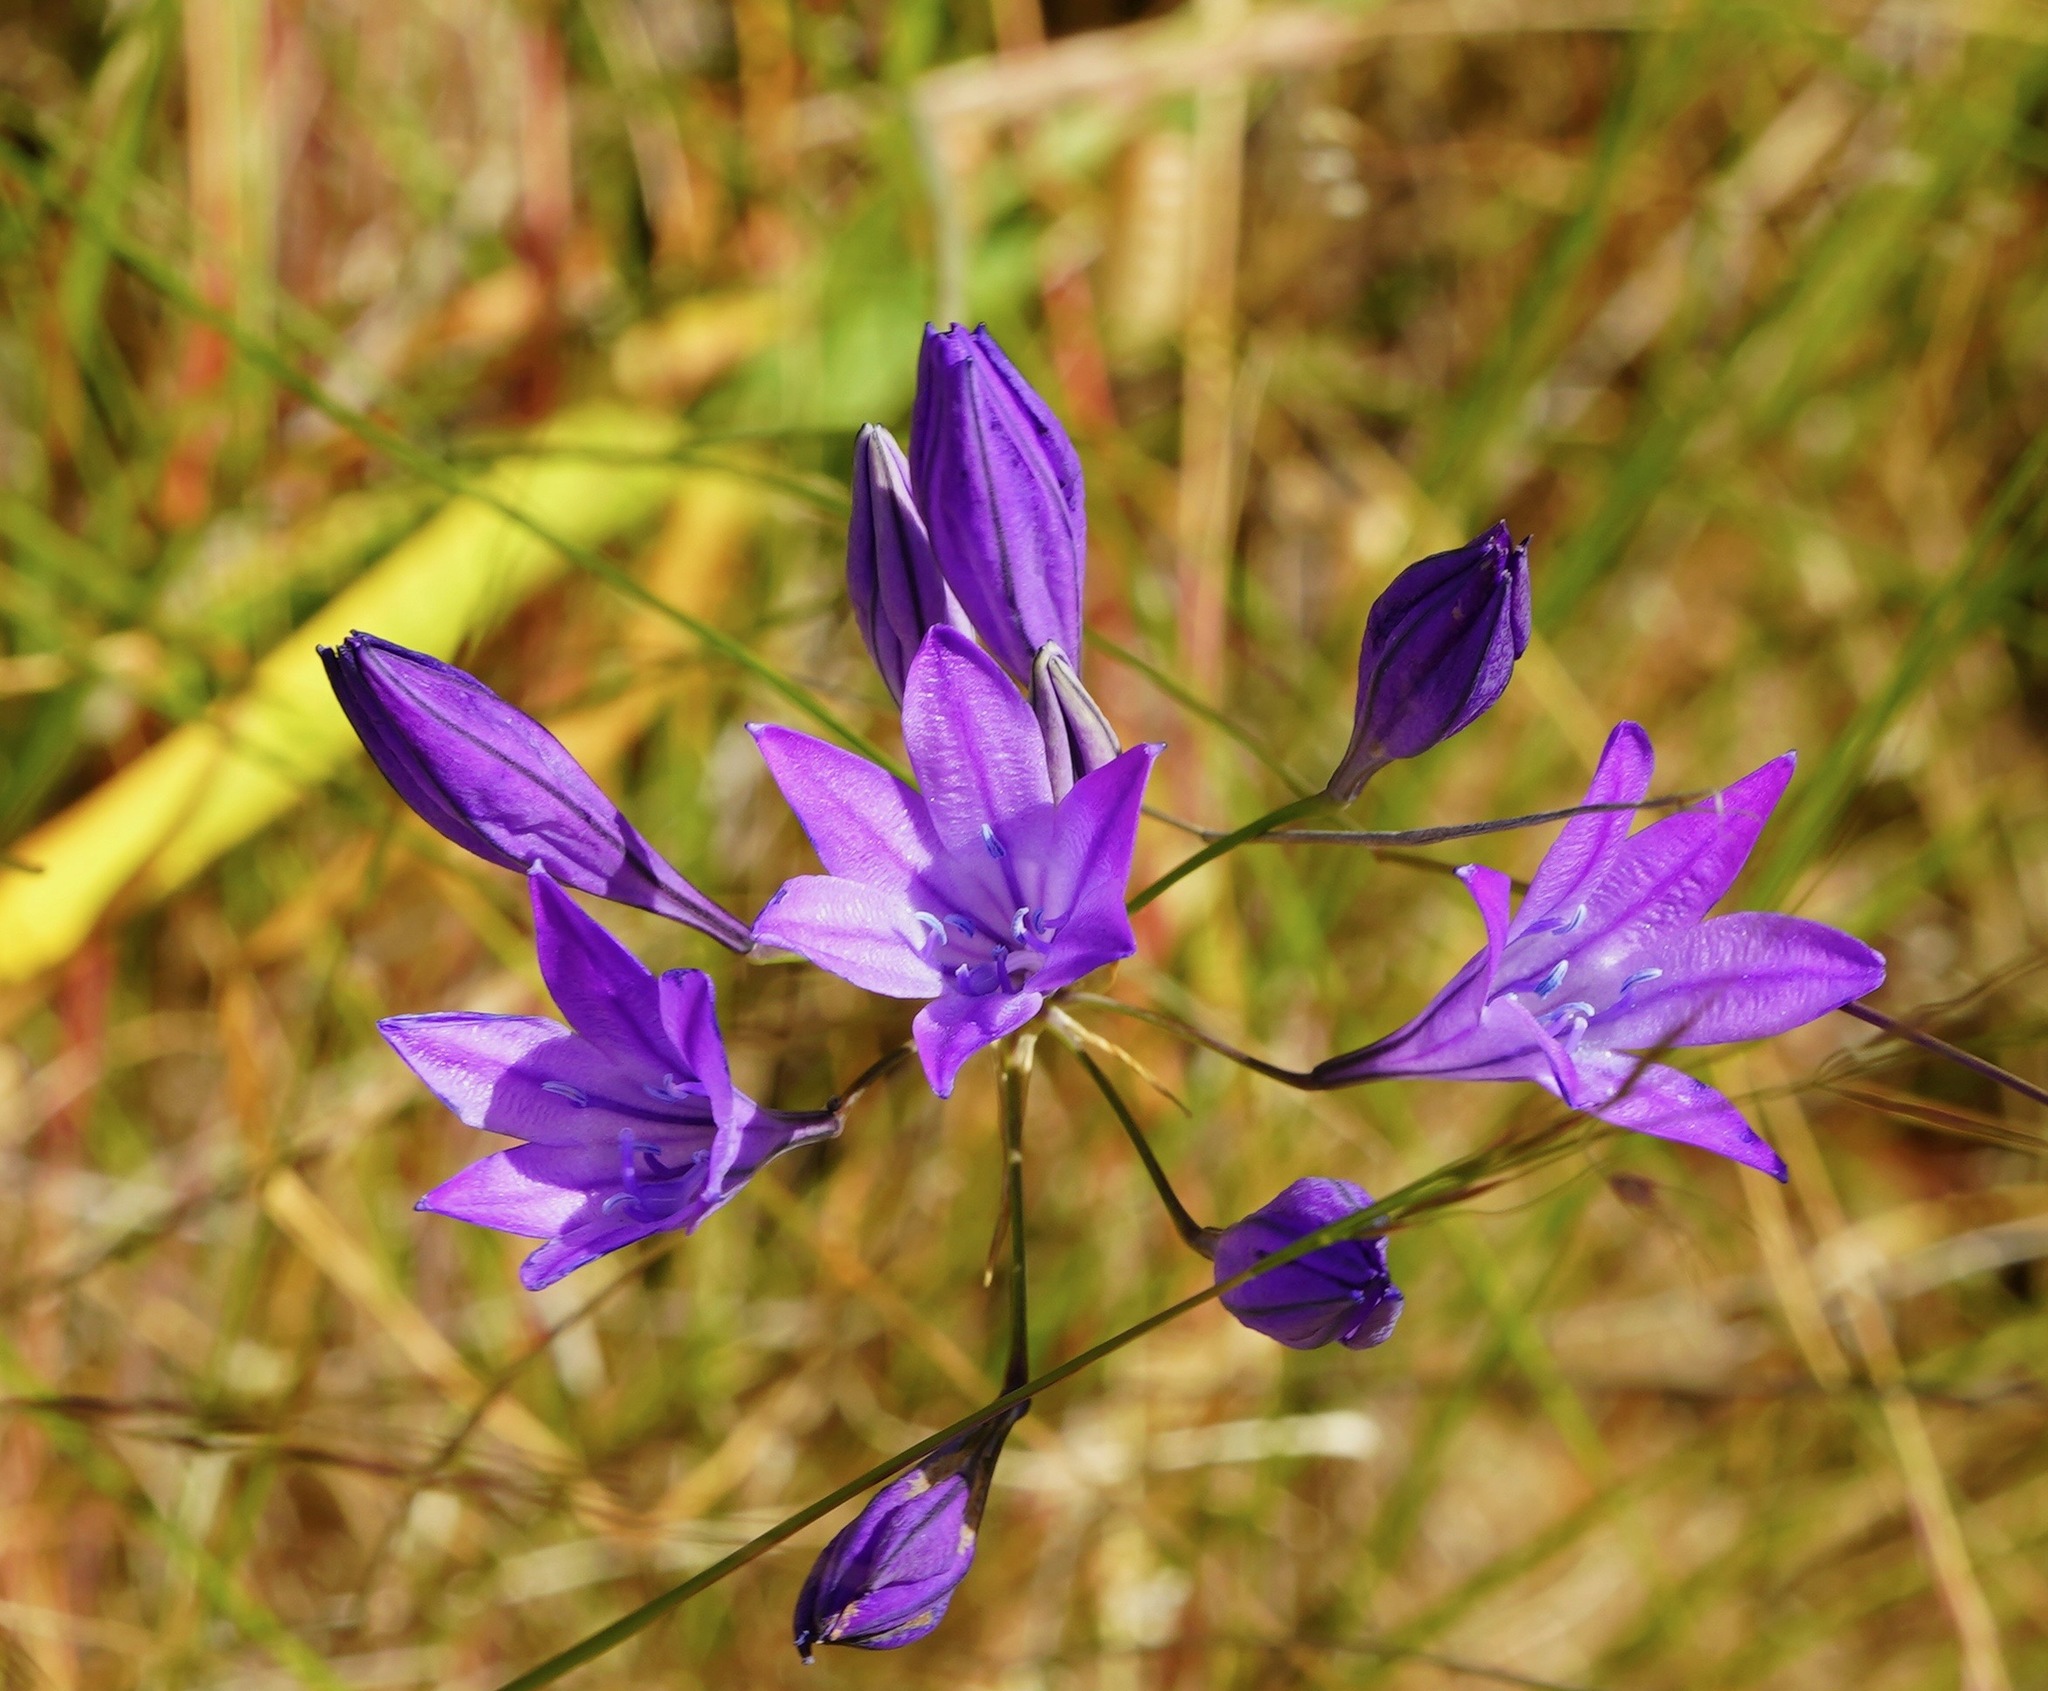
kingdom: Plantae
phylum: Tracheophyta
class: Liliopsida
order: Asparagales
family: Asparagaceae
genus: Triteleia
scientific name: Triteleia laxa
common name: Triplet-lily
